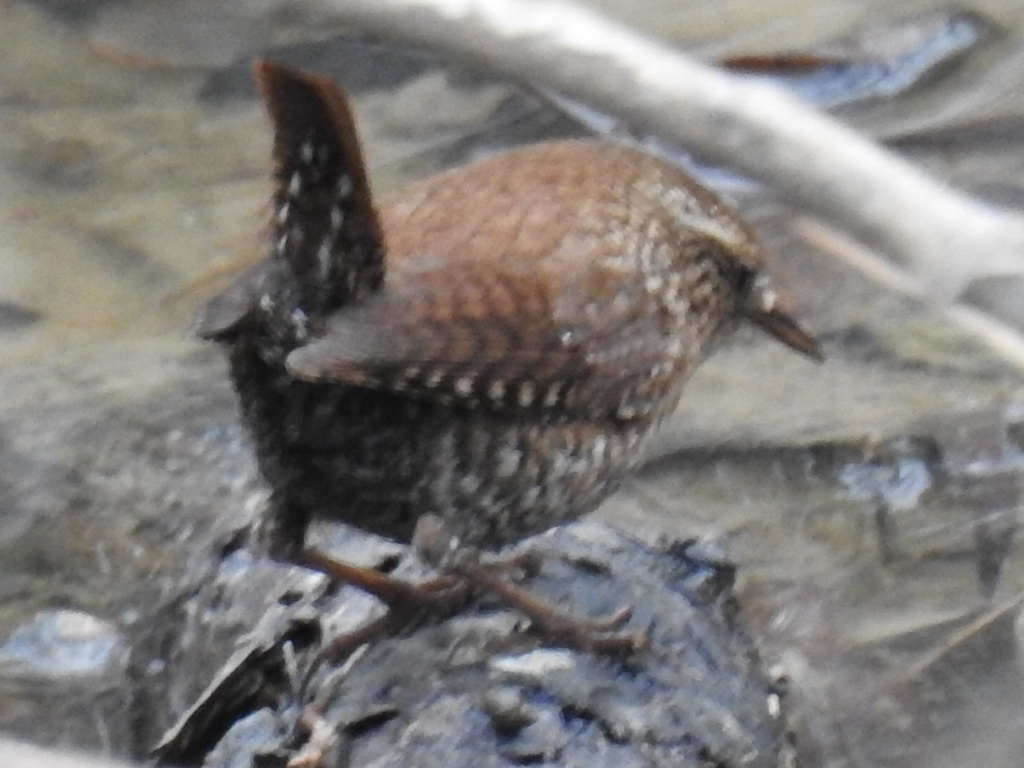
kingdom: Animalia
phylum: Chordata
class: Aves
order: Passeriformes
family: Troglodytidae
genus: Troglodytes
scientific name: Troglodytes hiemalis
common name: Winter wren
